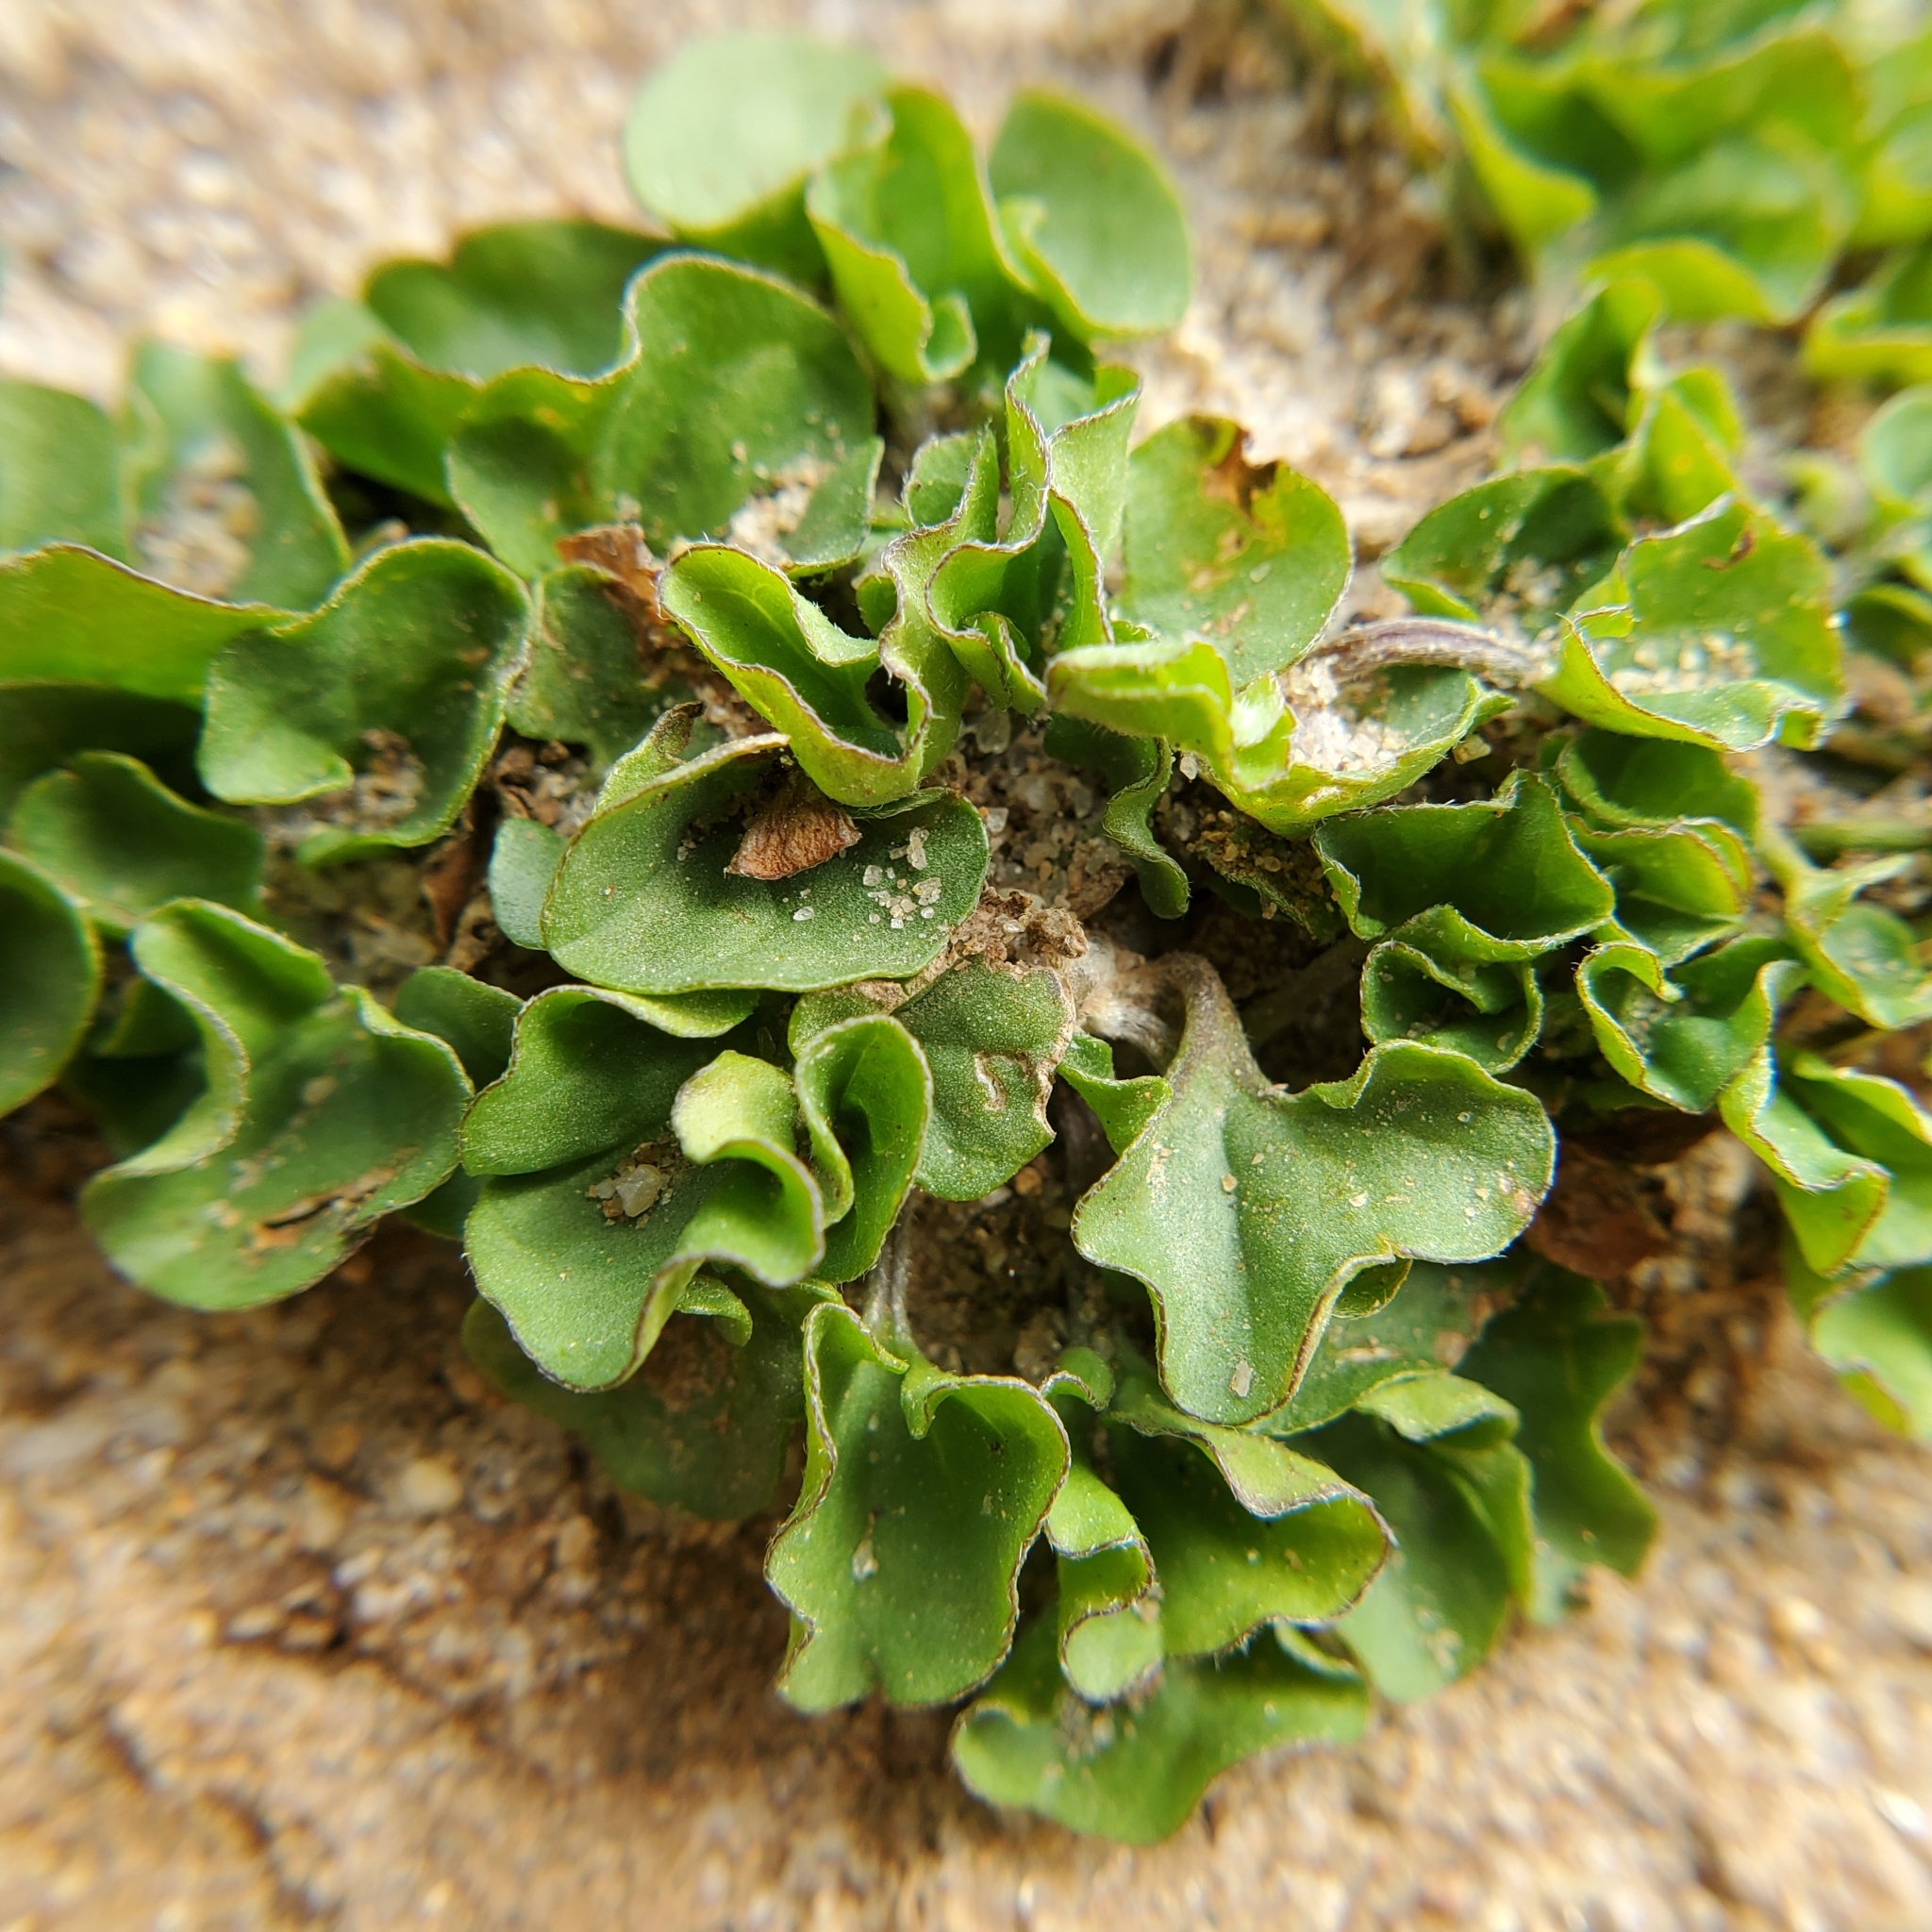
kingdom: Plantae
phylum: Tracheophyta
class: Magnoliopsida
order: Solanales
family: Convolvulaceae
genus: Dichondra
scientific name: Dichondra occidentalis
